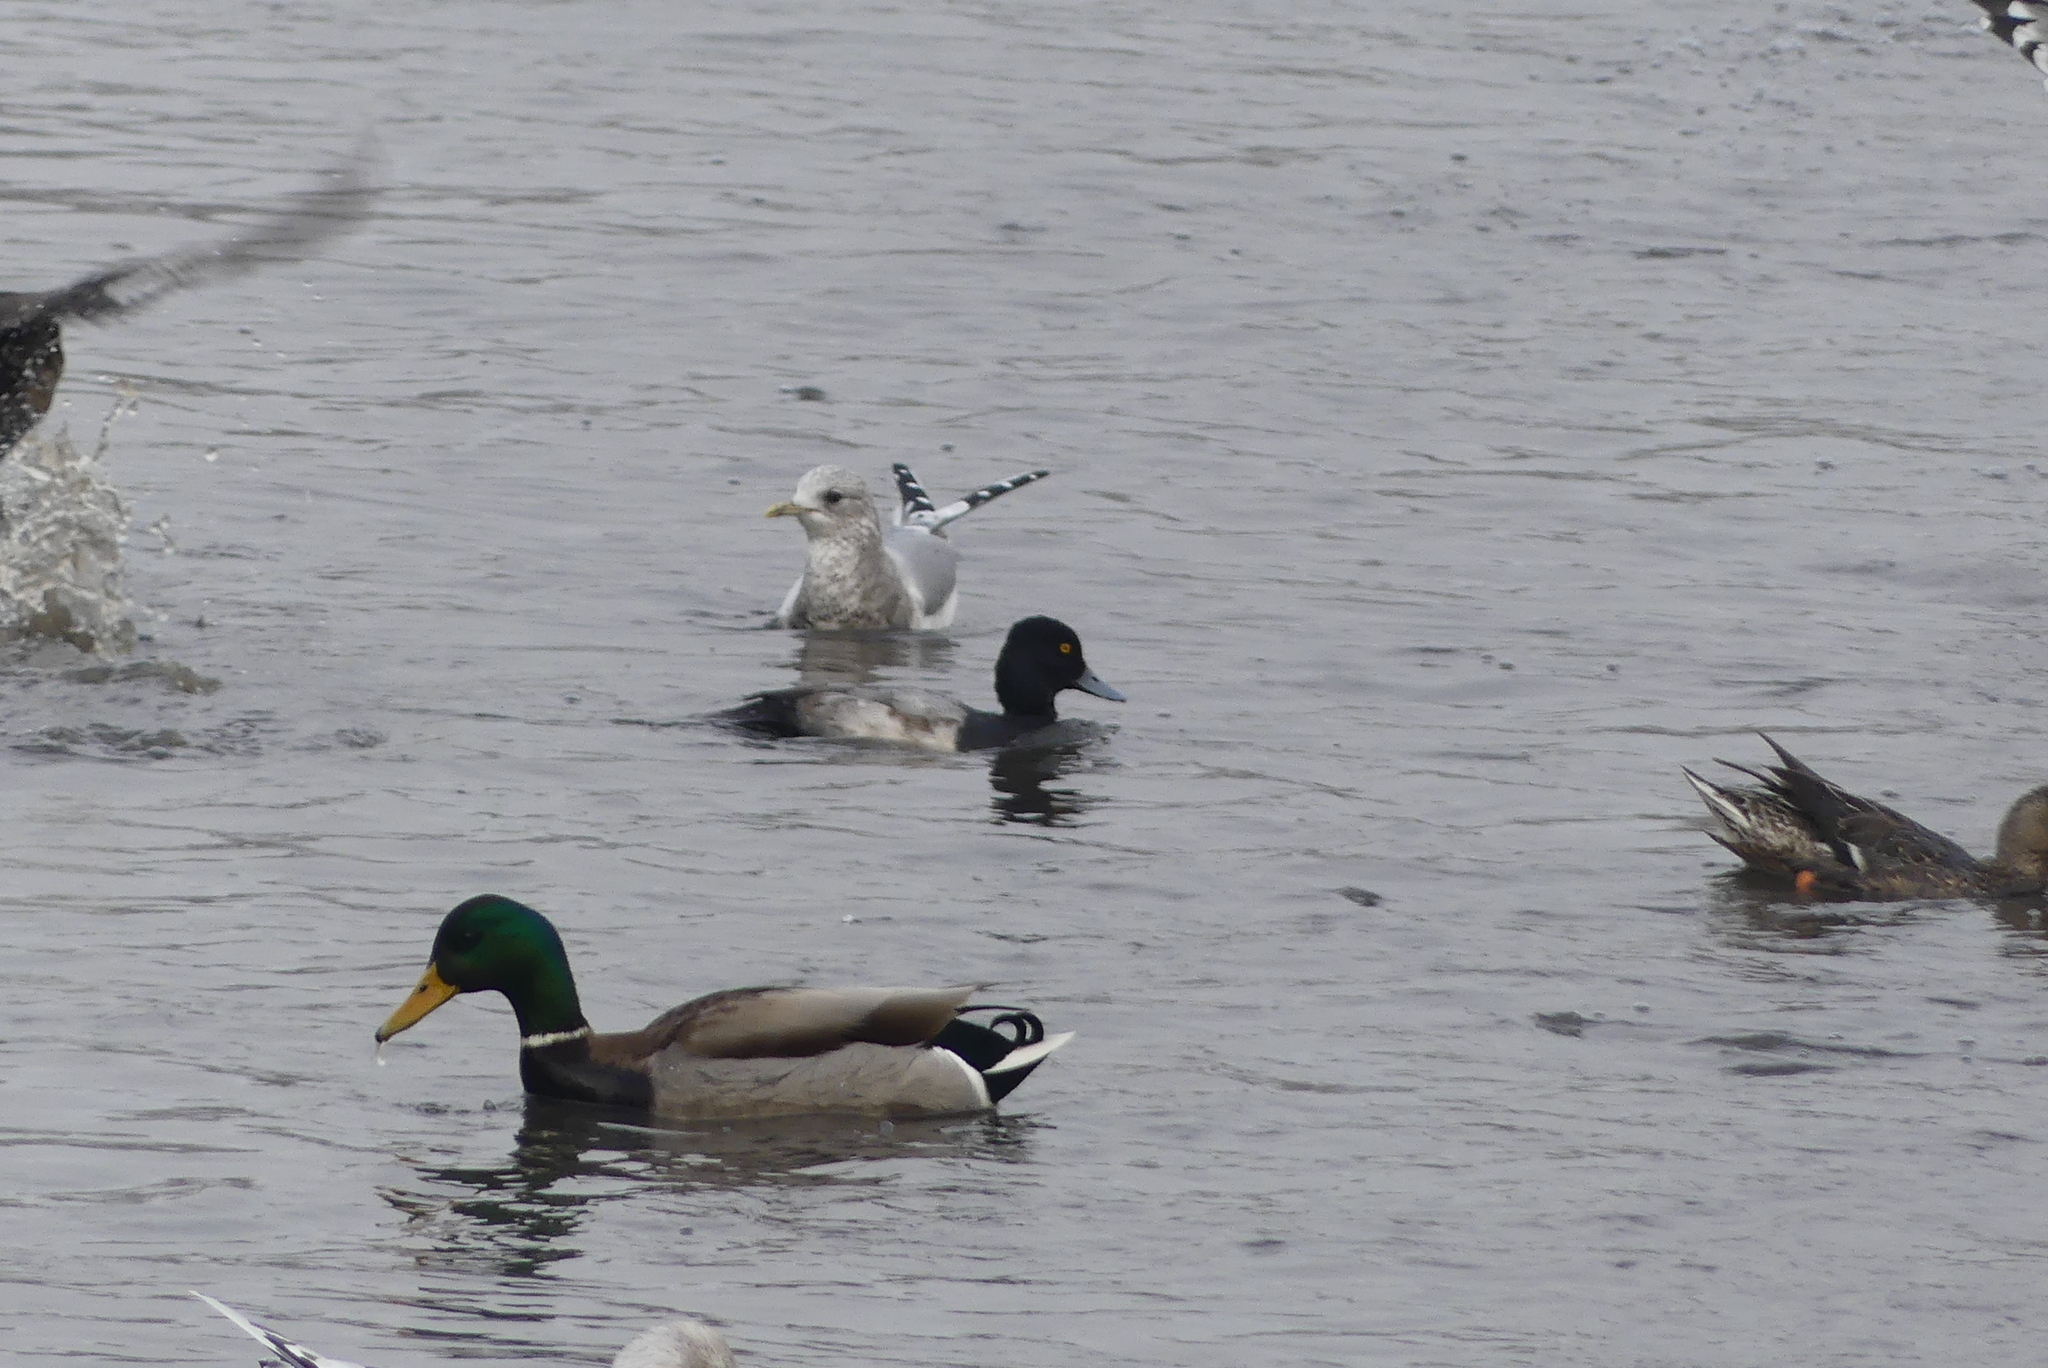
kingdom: Animalia
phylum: Chordata
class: Aves
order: Anseriformes
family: Anatidae
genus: Anas
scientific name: Anas platyrhynchos
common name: Mallard
